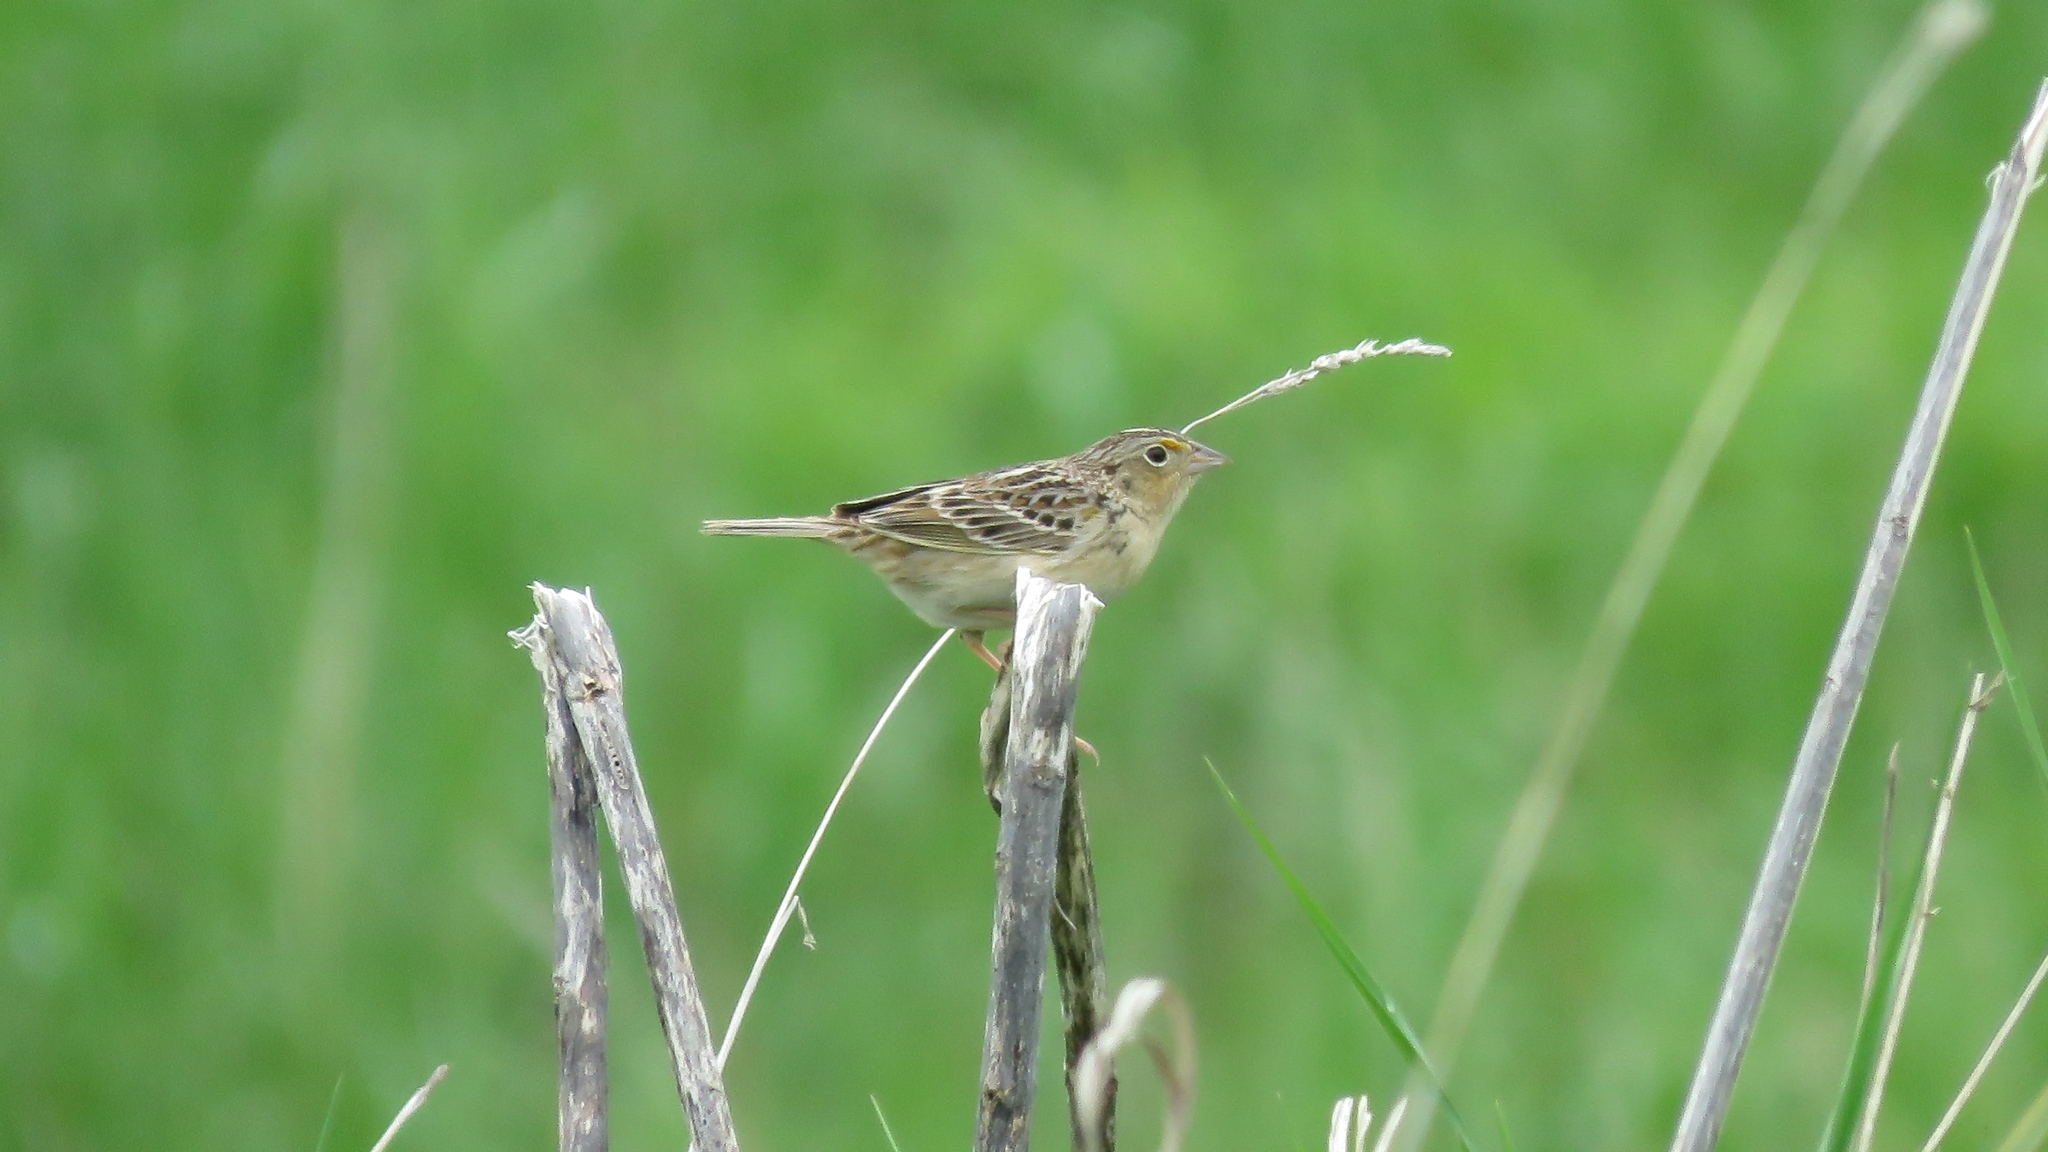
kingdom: Animalia
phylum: Chordata
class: Aves
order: Passeriformes
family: Passerellidae
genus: Ammodramus
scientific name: Ammodramus savannarum
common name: Grasshopper sparrow
